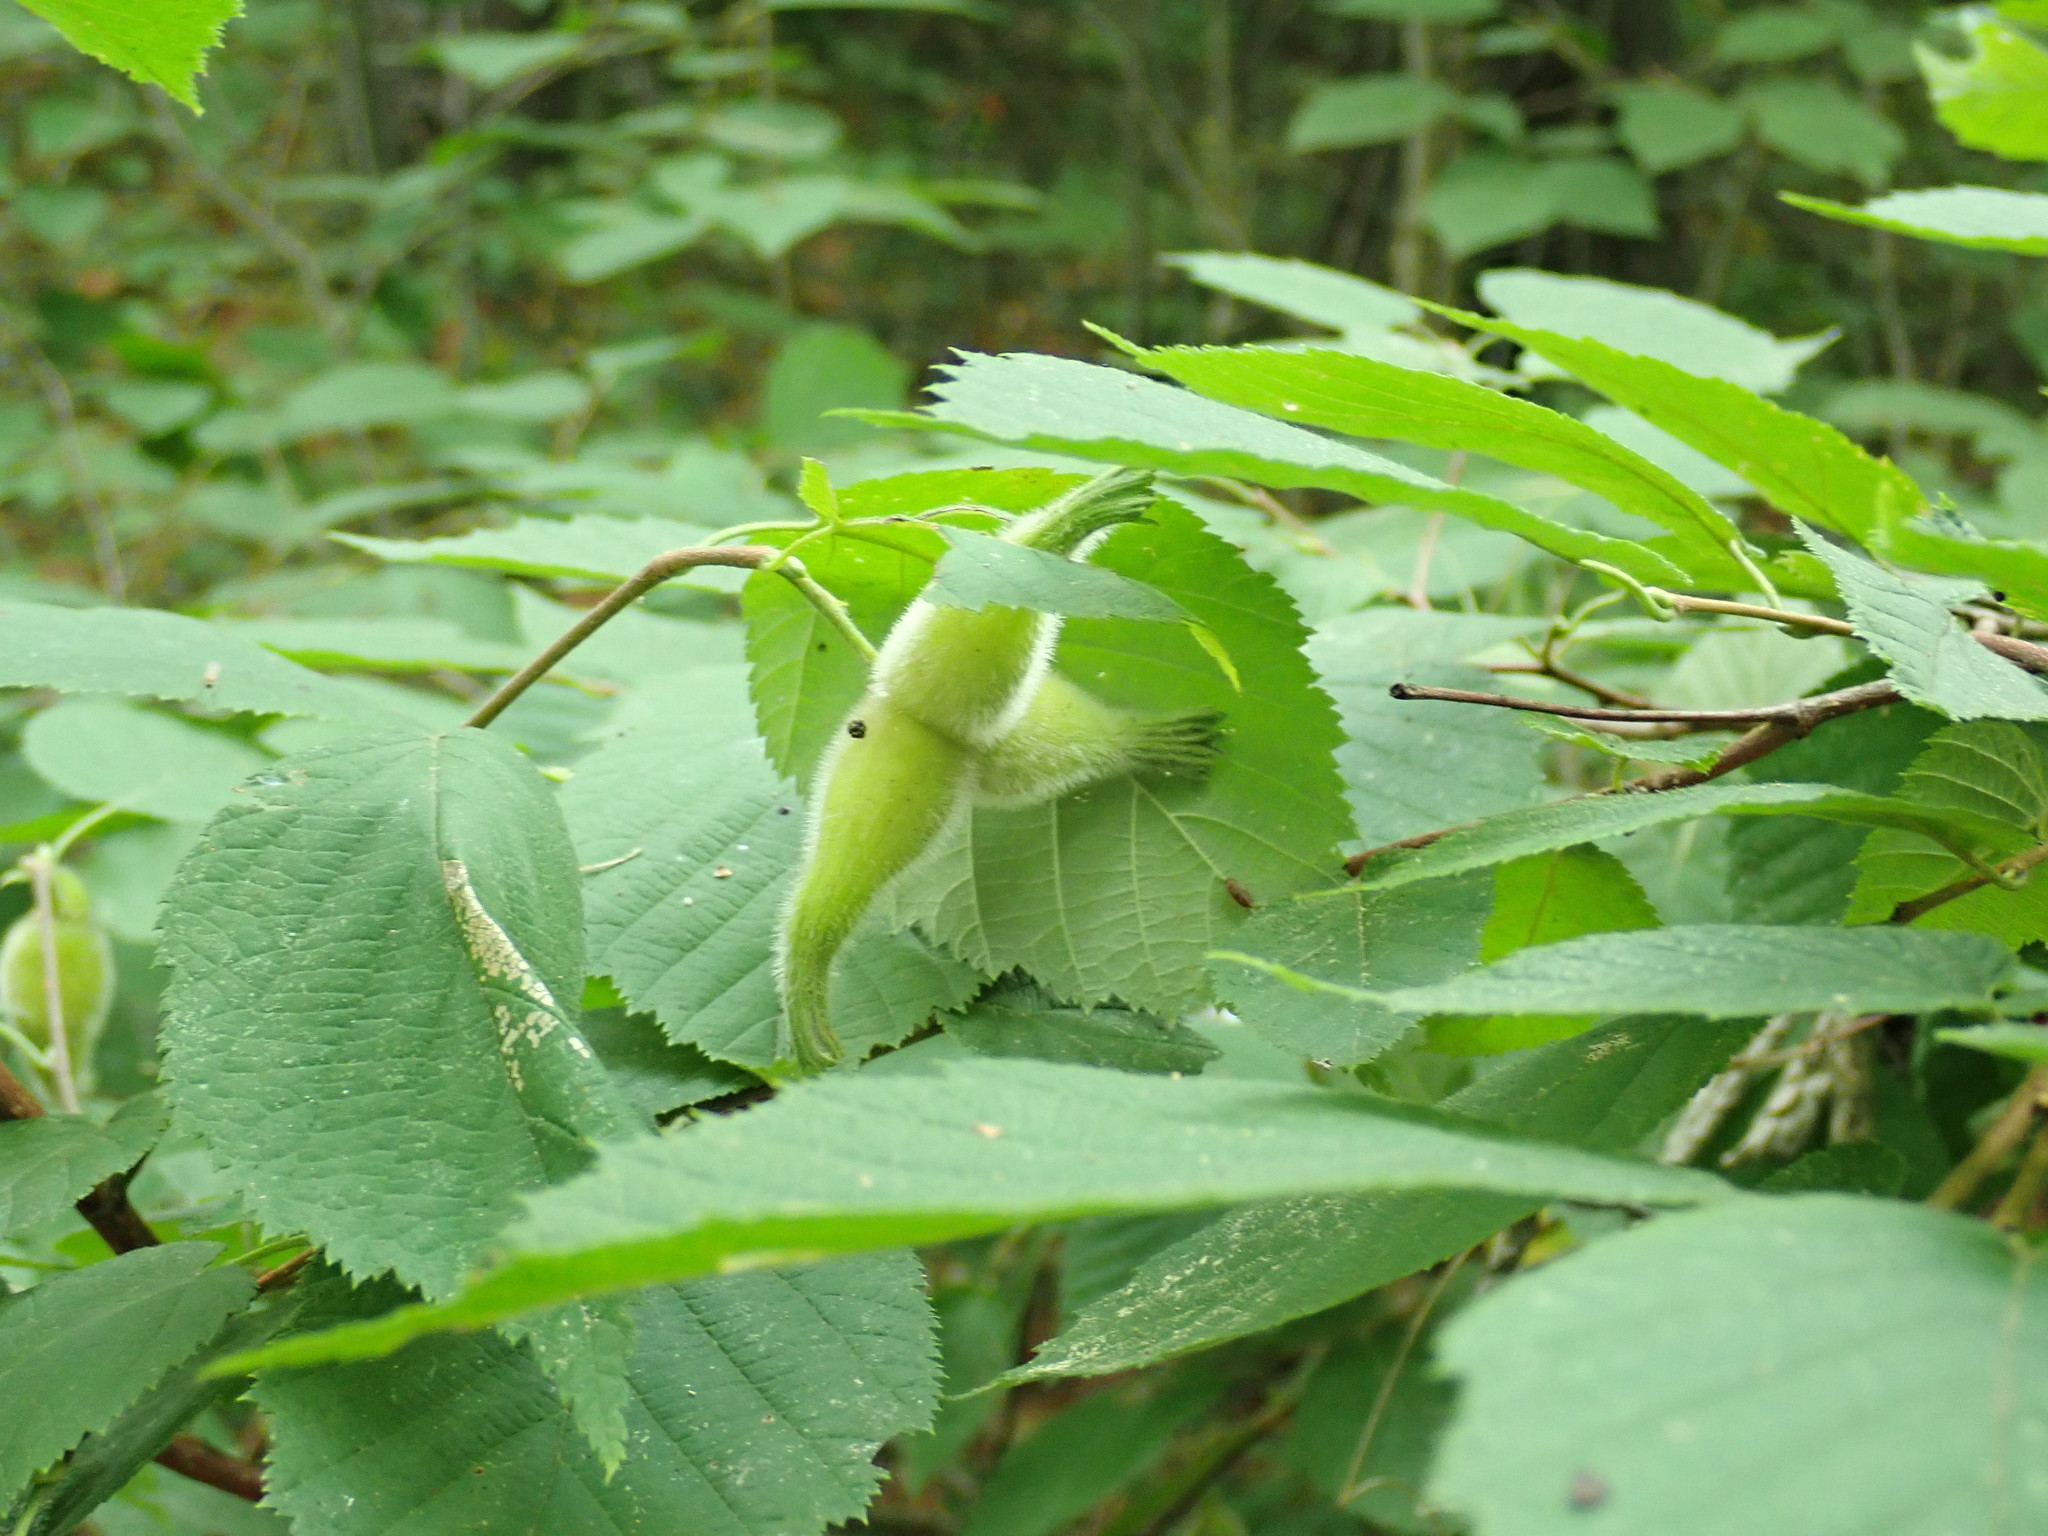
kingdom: Plantae
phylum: Tracheophyta
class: Magnoliopsida
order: Fagales
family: Betulaceae
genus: Corylus
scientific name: Corylus cornuta
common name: Beaked hazel
